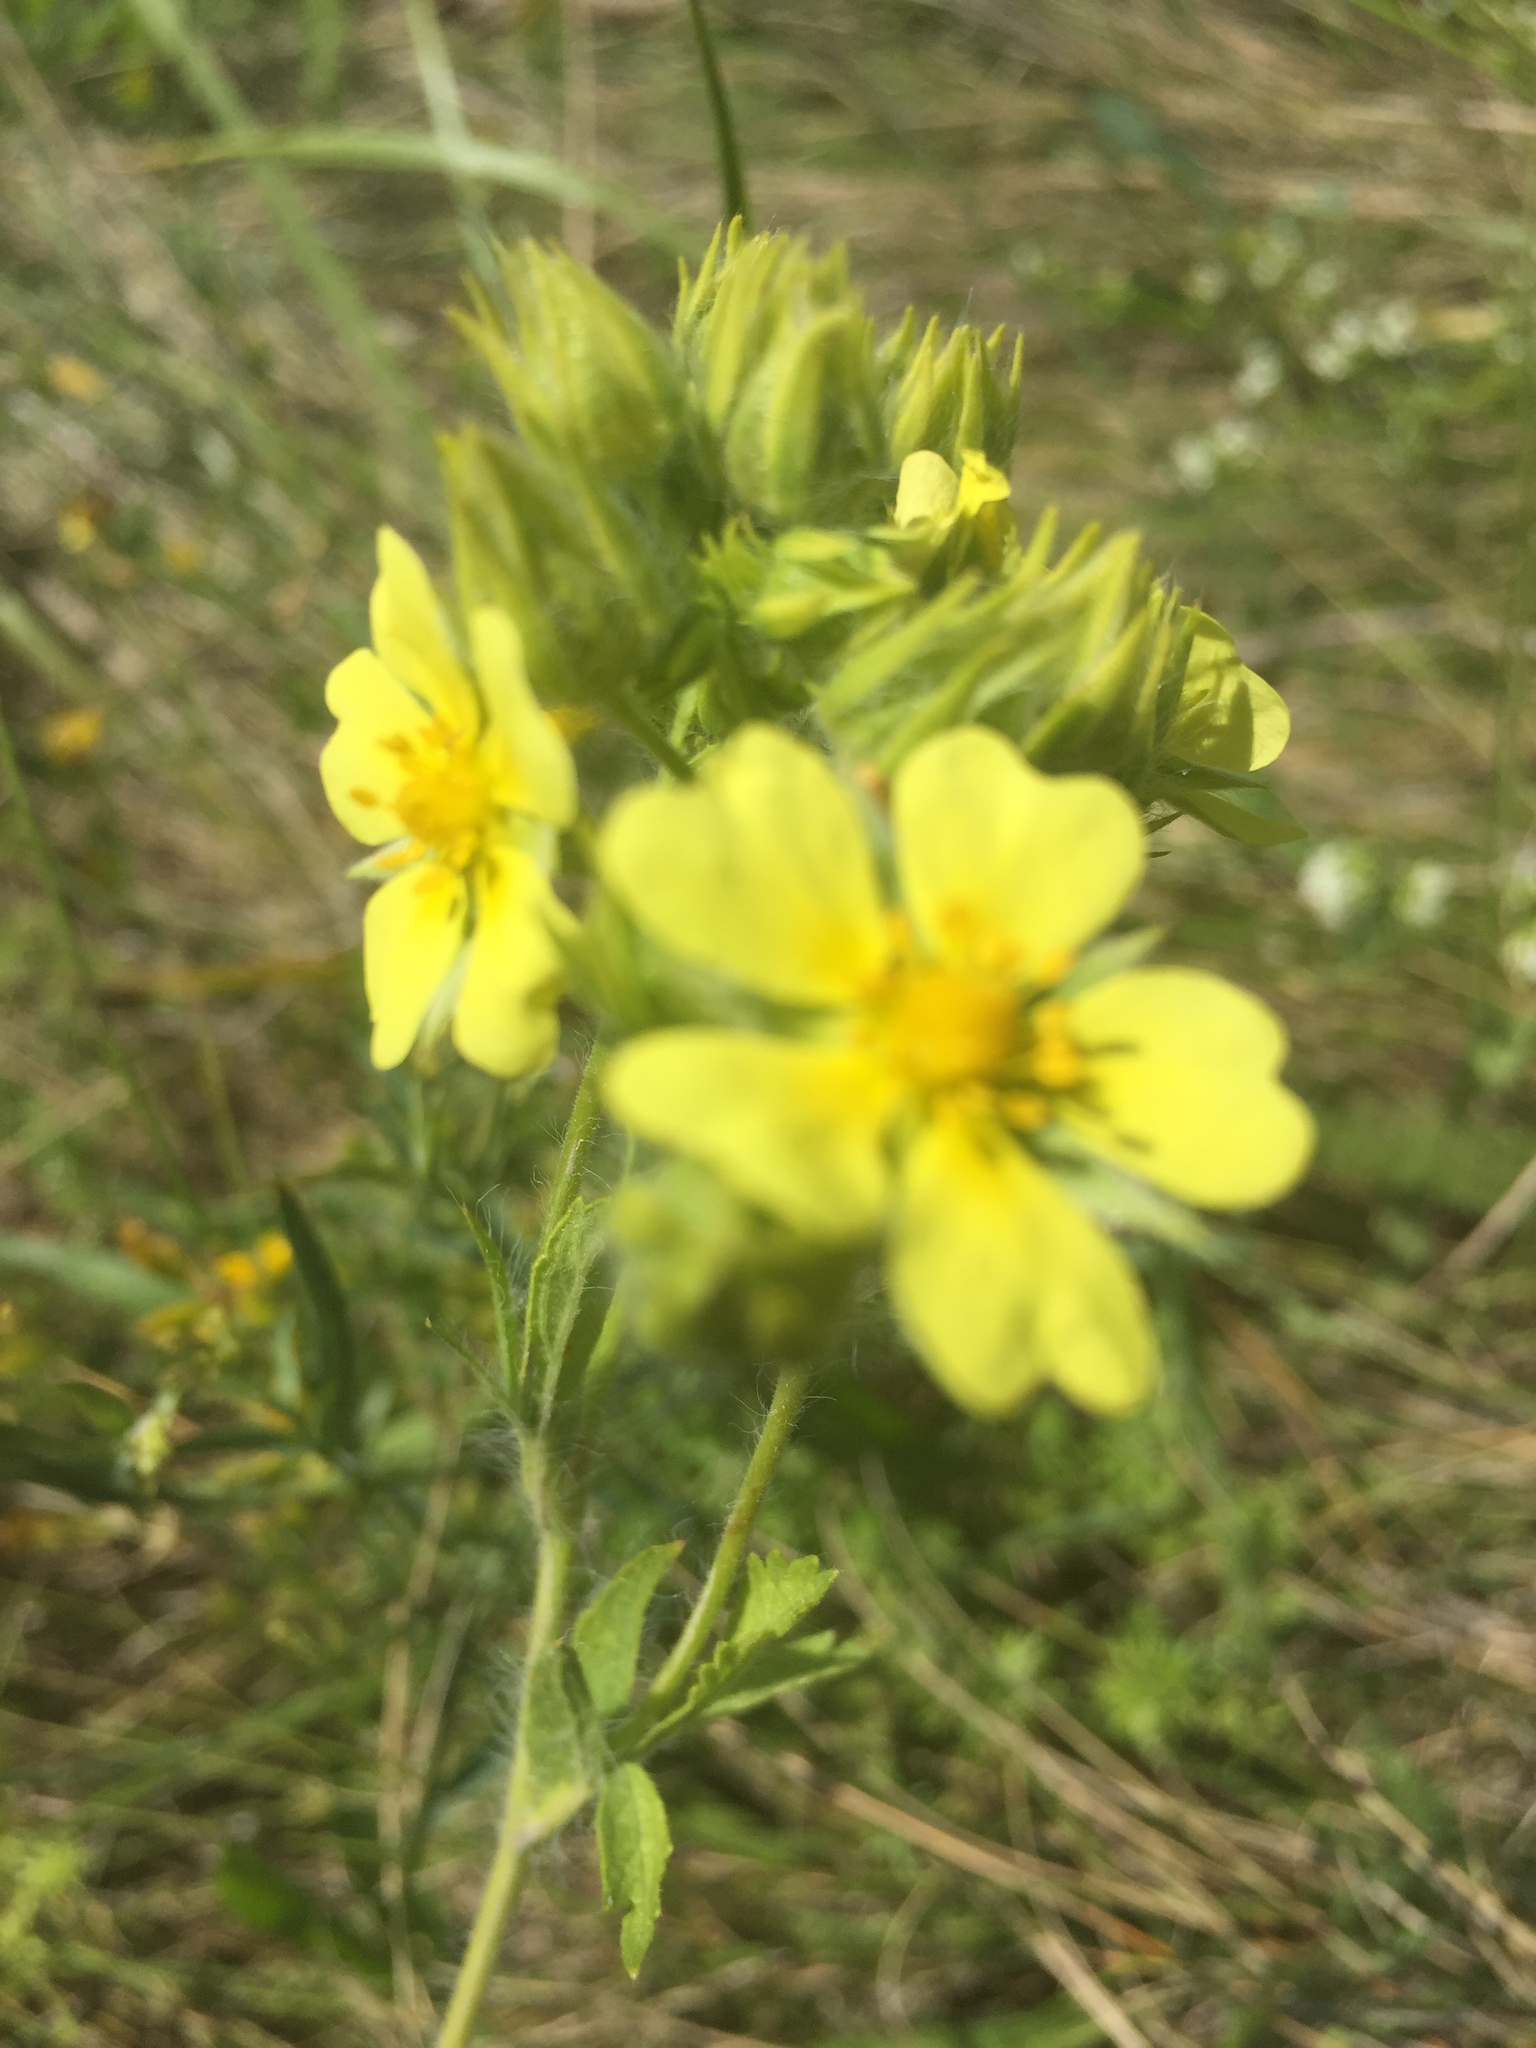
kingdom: Plantae
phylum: Tracheophyta
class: Magnoliopsida
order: Rosales
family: Rosaceae
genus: Potentilla
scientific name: Potentilla recta
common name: Sulphur cinquefoil
